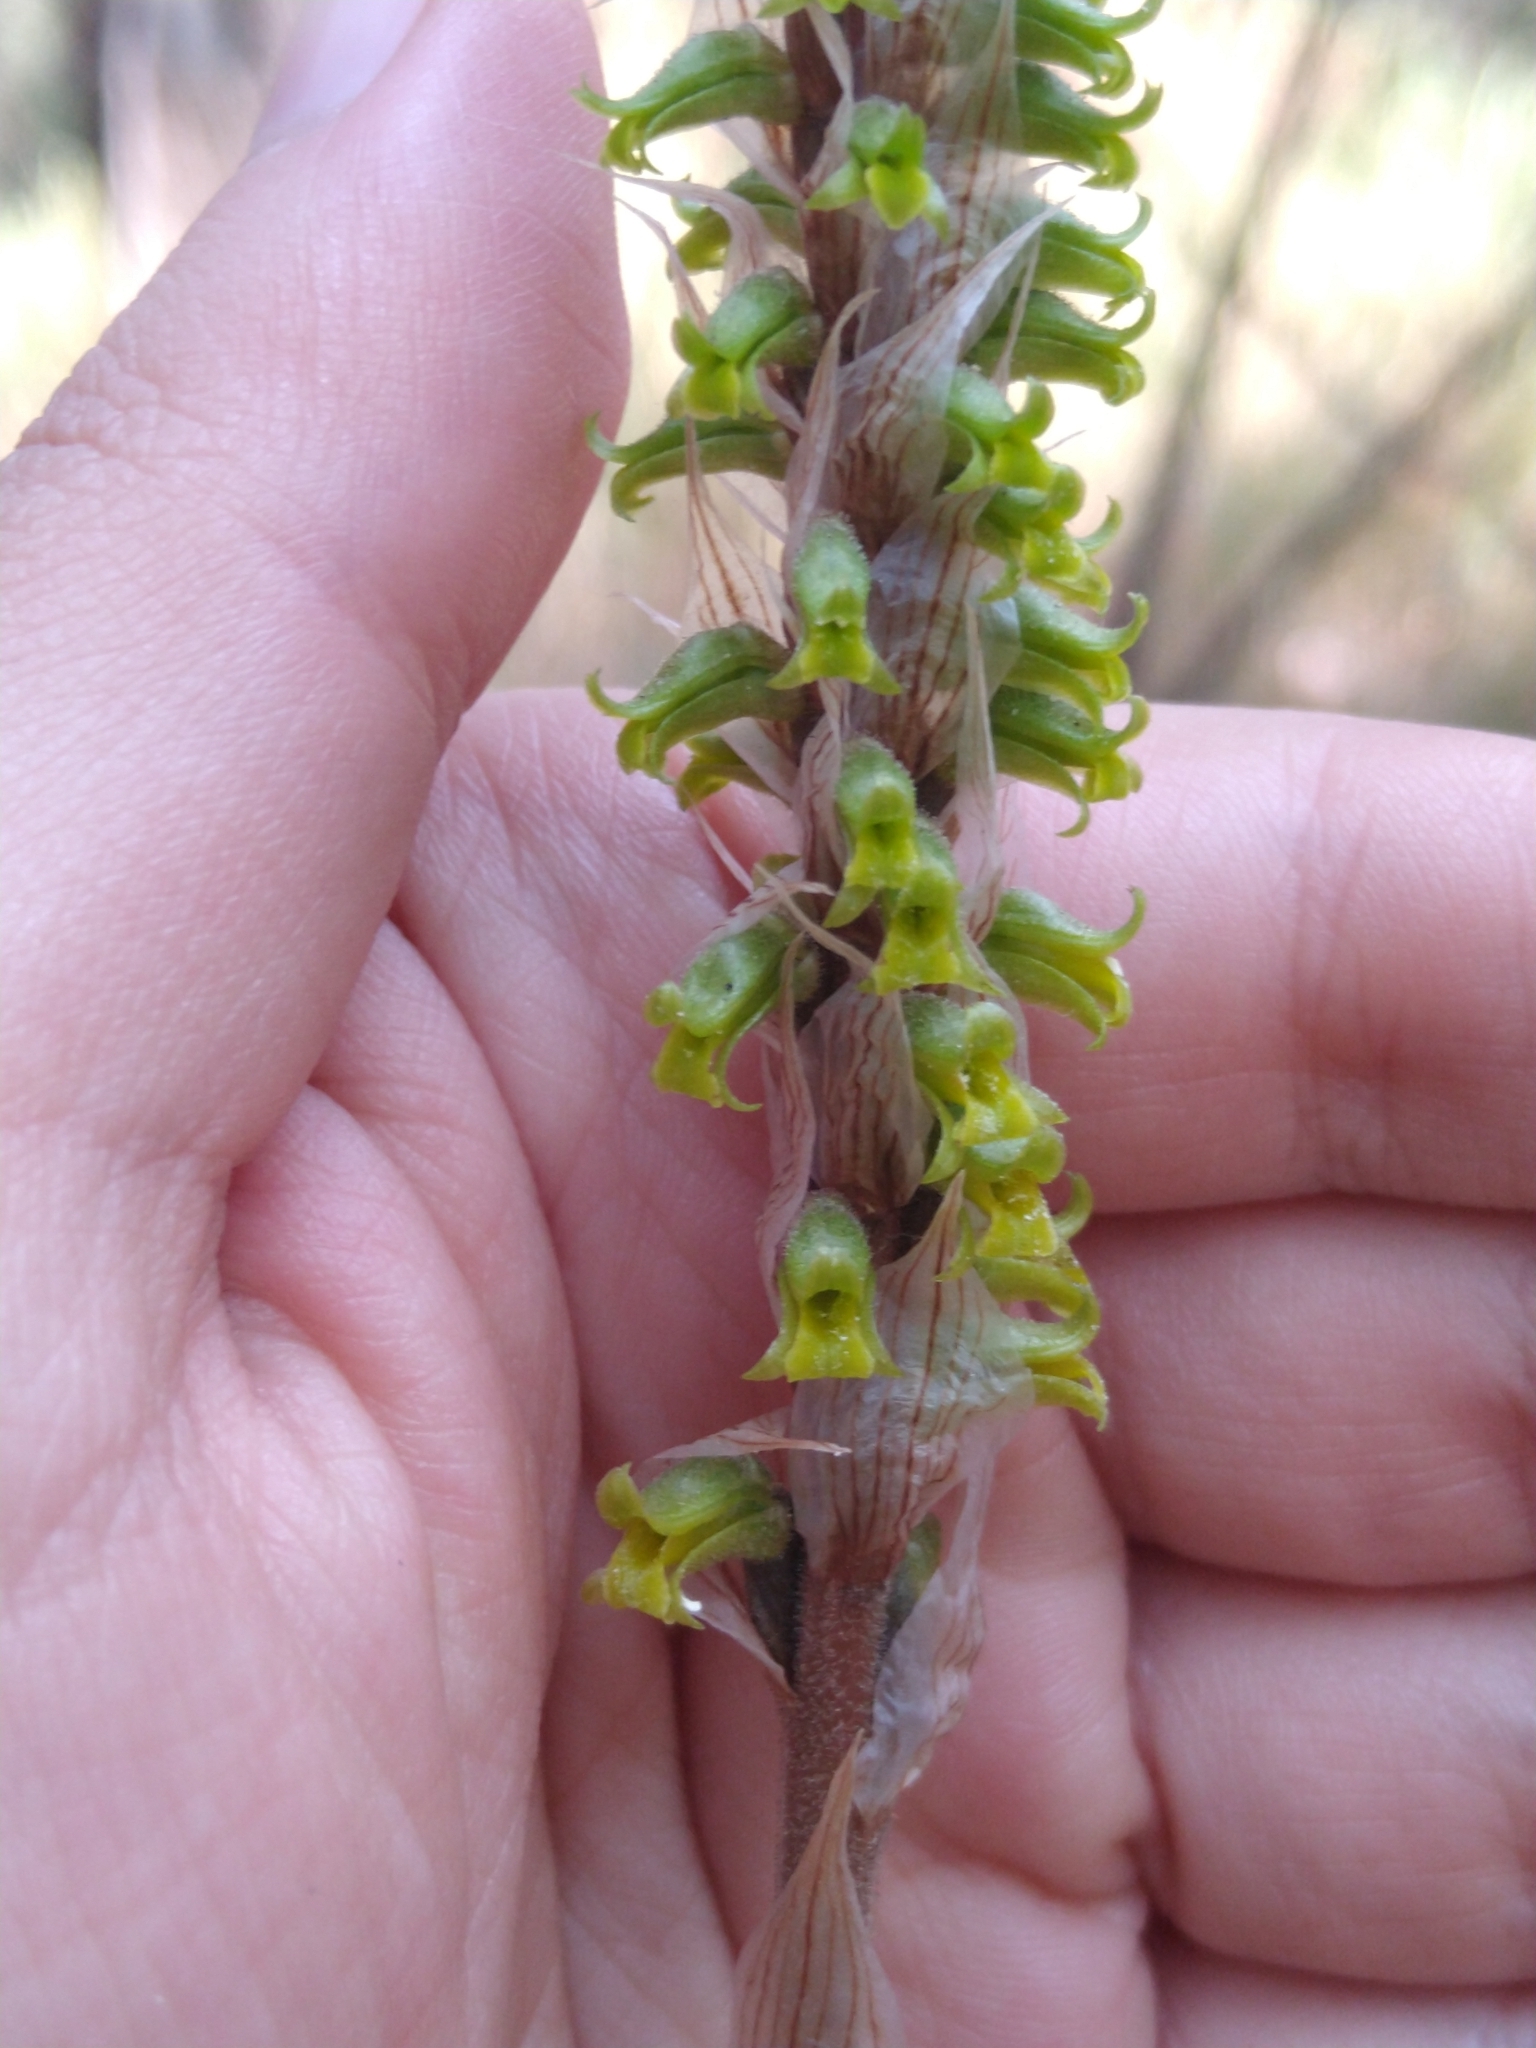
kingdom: Plantae
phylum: Tracheophyta
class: Liliopsida
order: Asparagales
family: Orchidaceae
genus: Schiedeella
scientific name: Schiedeella albovaginata
